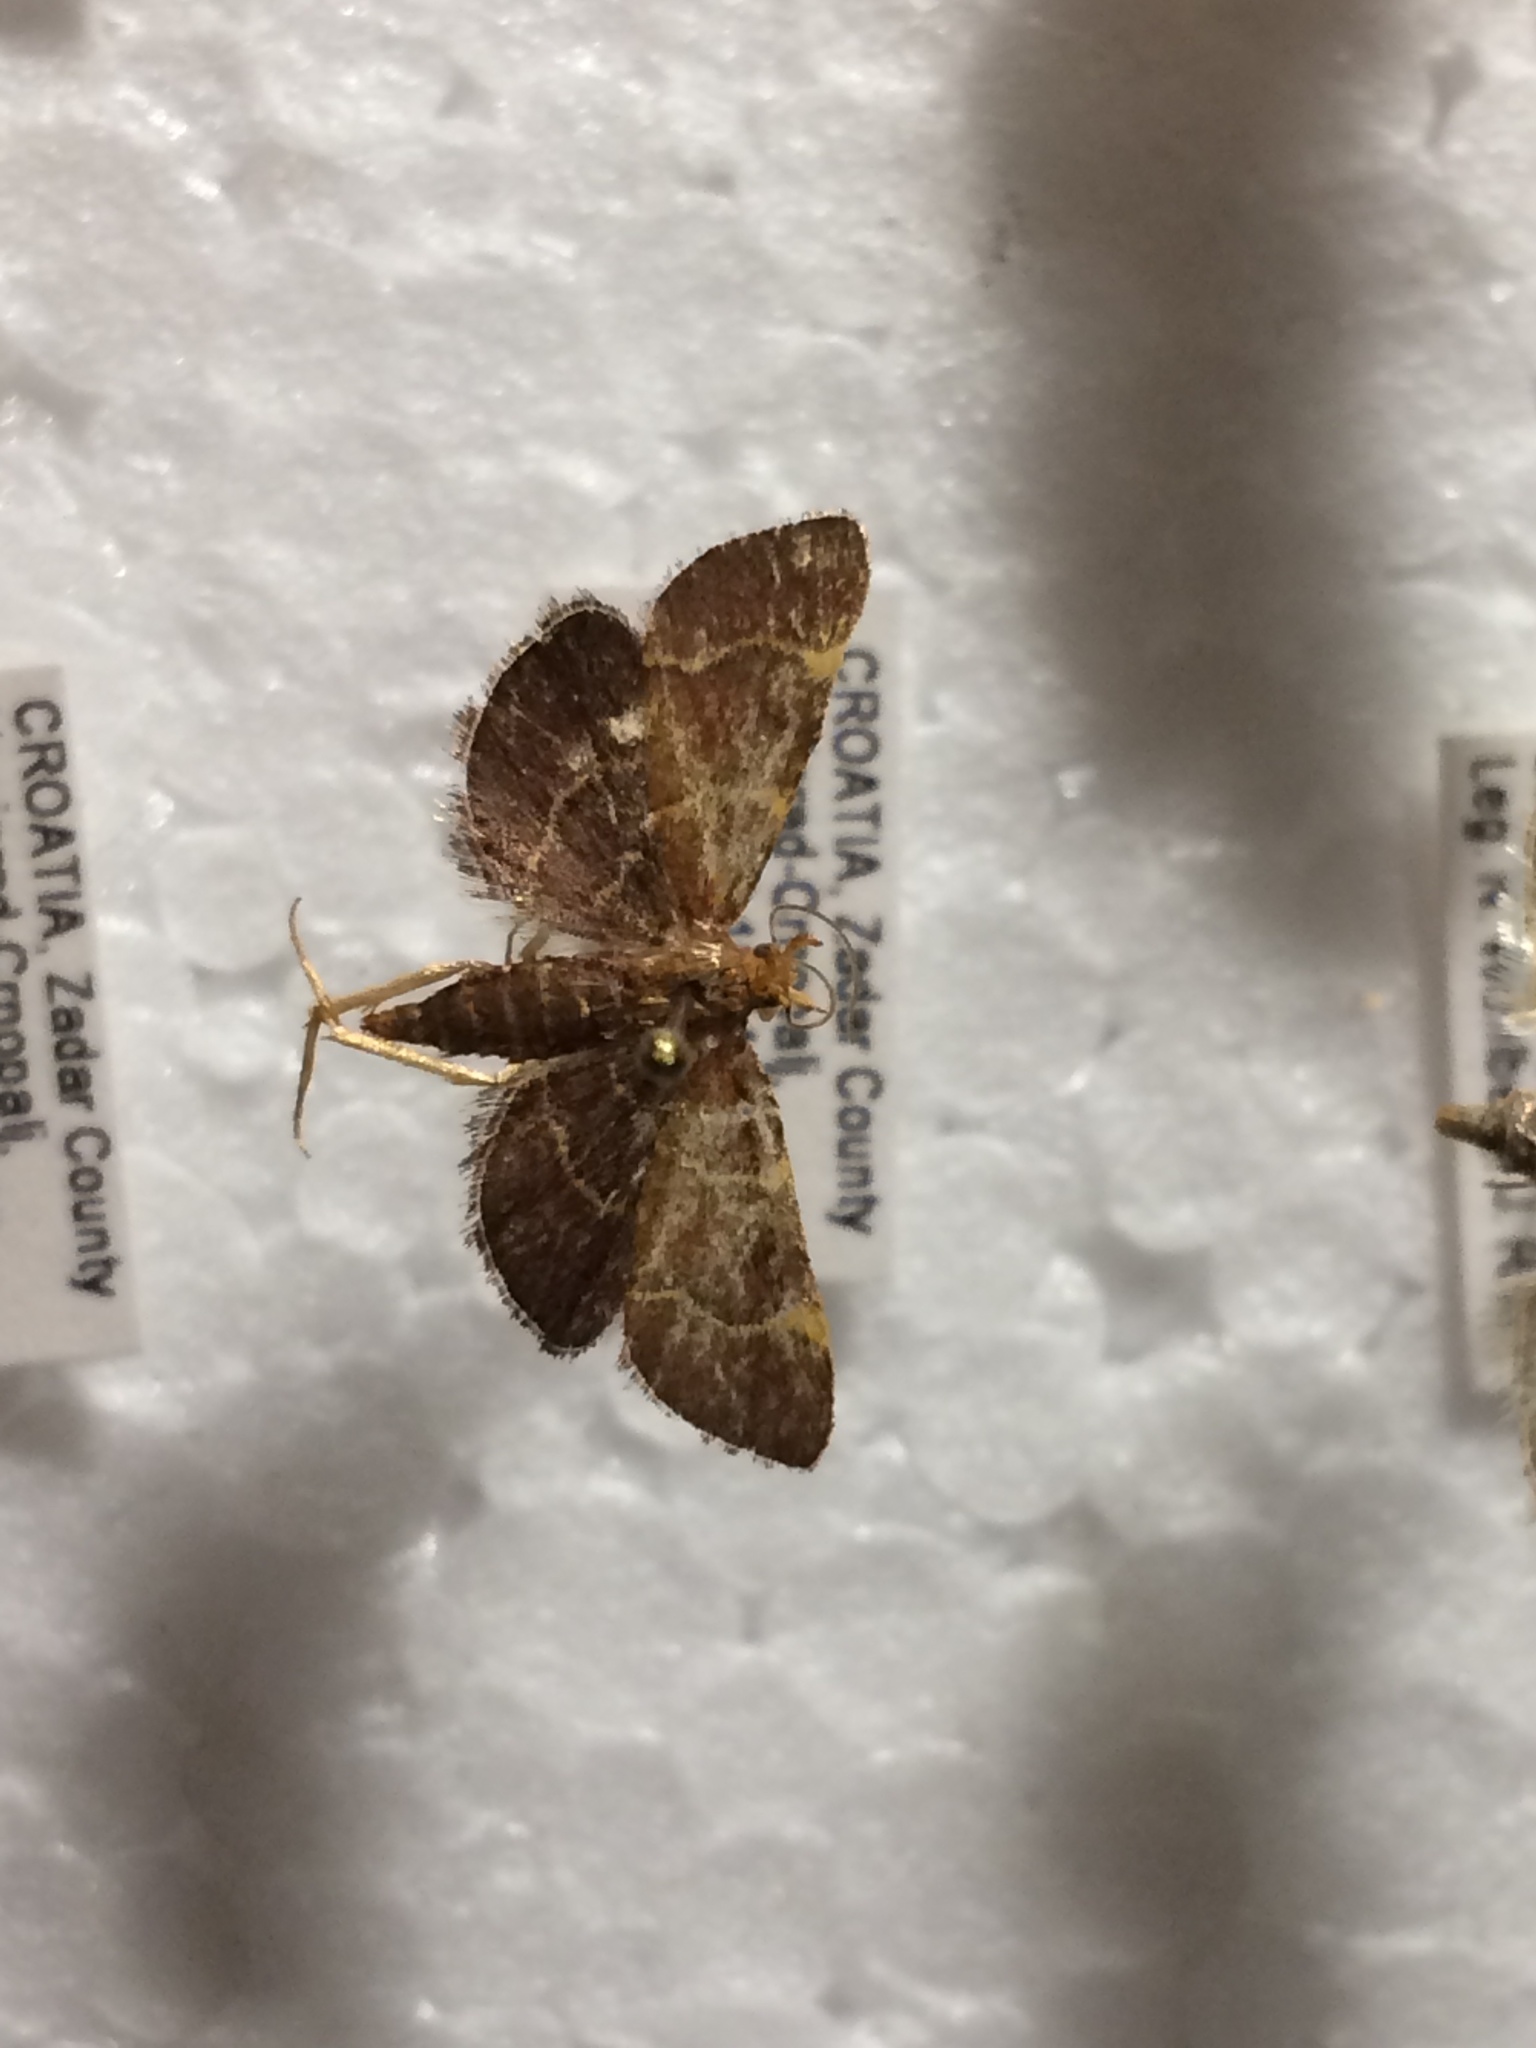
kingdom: Animalia
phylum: Arthropoda
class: Insecta
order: Lepidoptera
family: Pyralidae
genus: Herculia
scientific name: Herculia rubidalis
